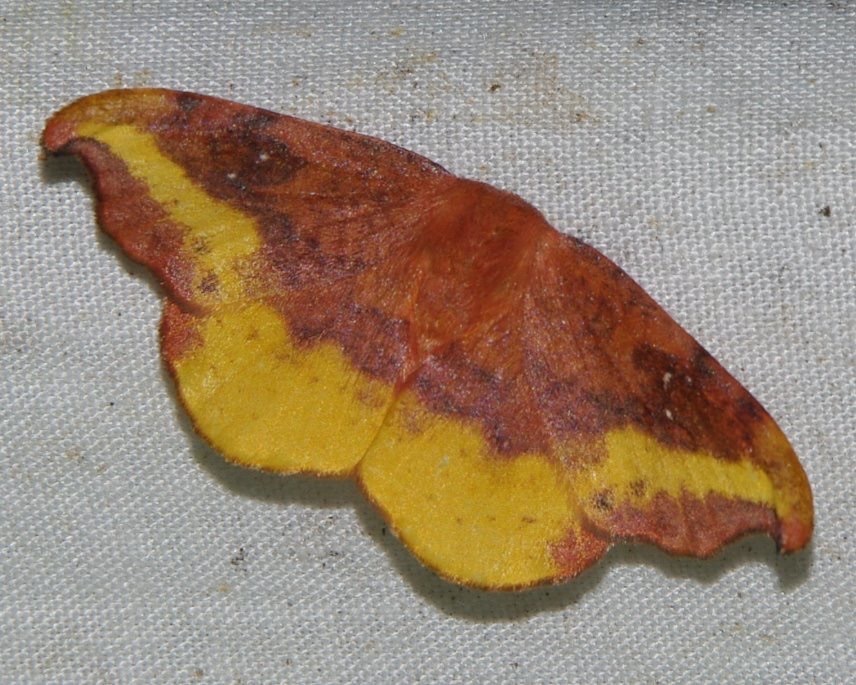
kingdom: Animalia
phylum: Arthropoda
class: Insecta
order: Lepidoptera
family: Drepanidae
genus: Oreta
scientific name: Oreta rosea
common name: Rose hooktip
